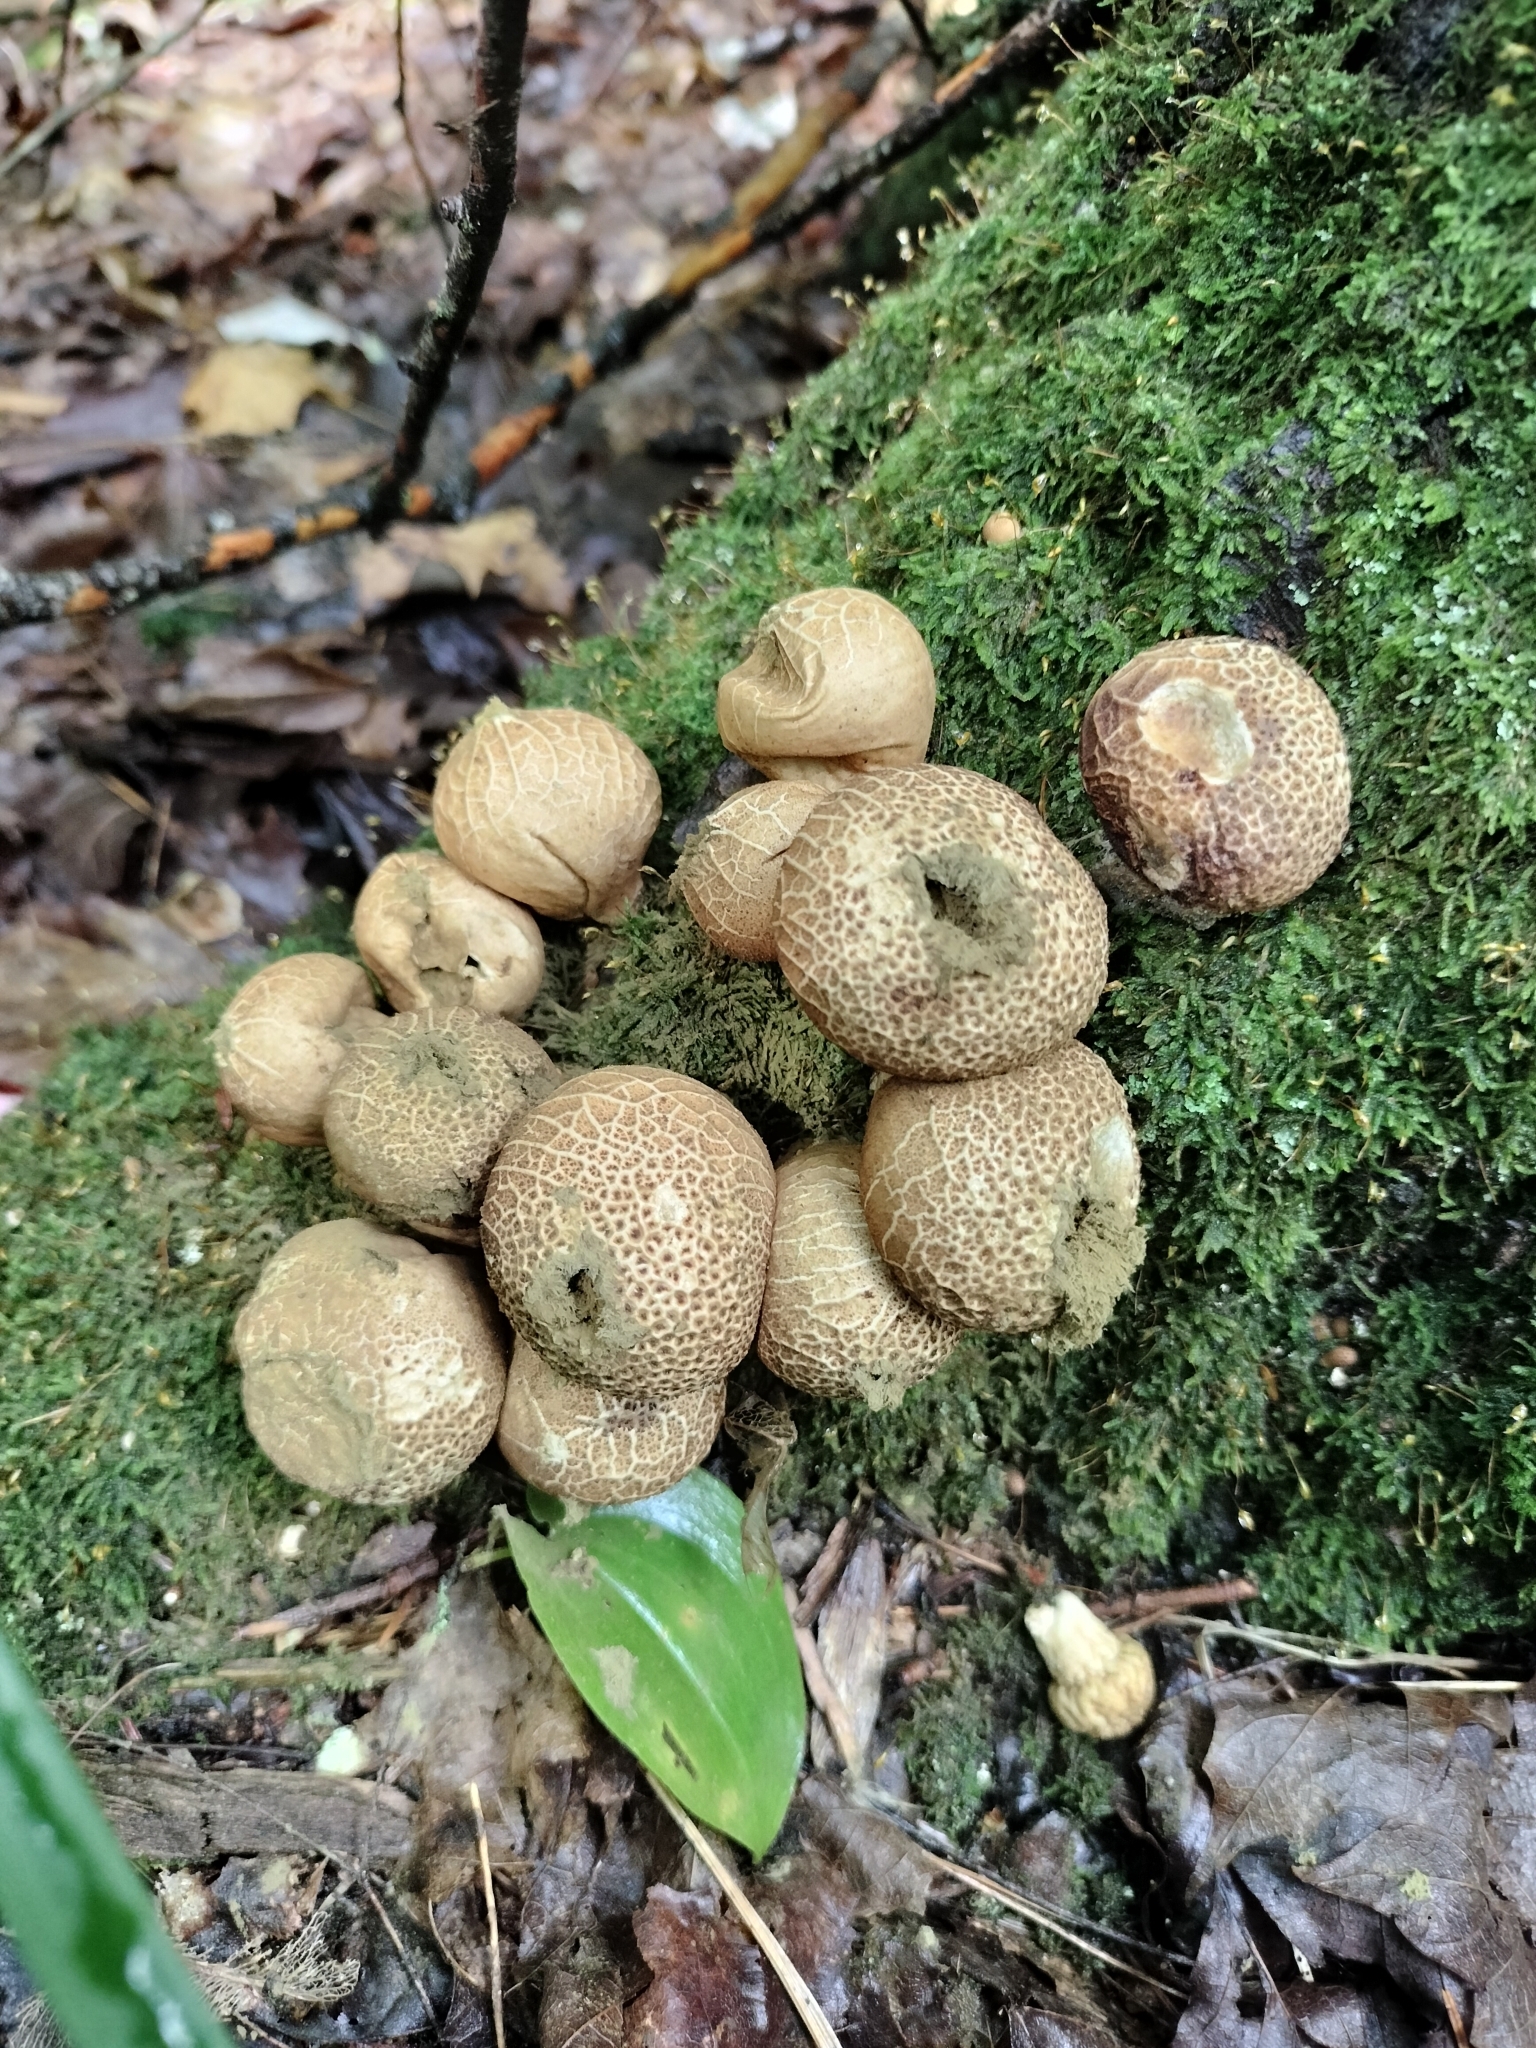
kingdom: Fungi
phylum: Basidiomycota
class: Agaricomycetes
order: Agaricales
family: Lycoperdaceae
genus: Apioperdon
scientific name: Apioperdon pyriforme
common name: Pear-shaped puffball
